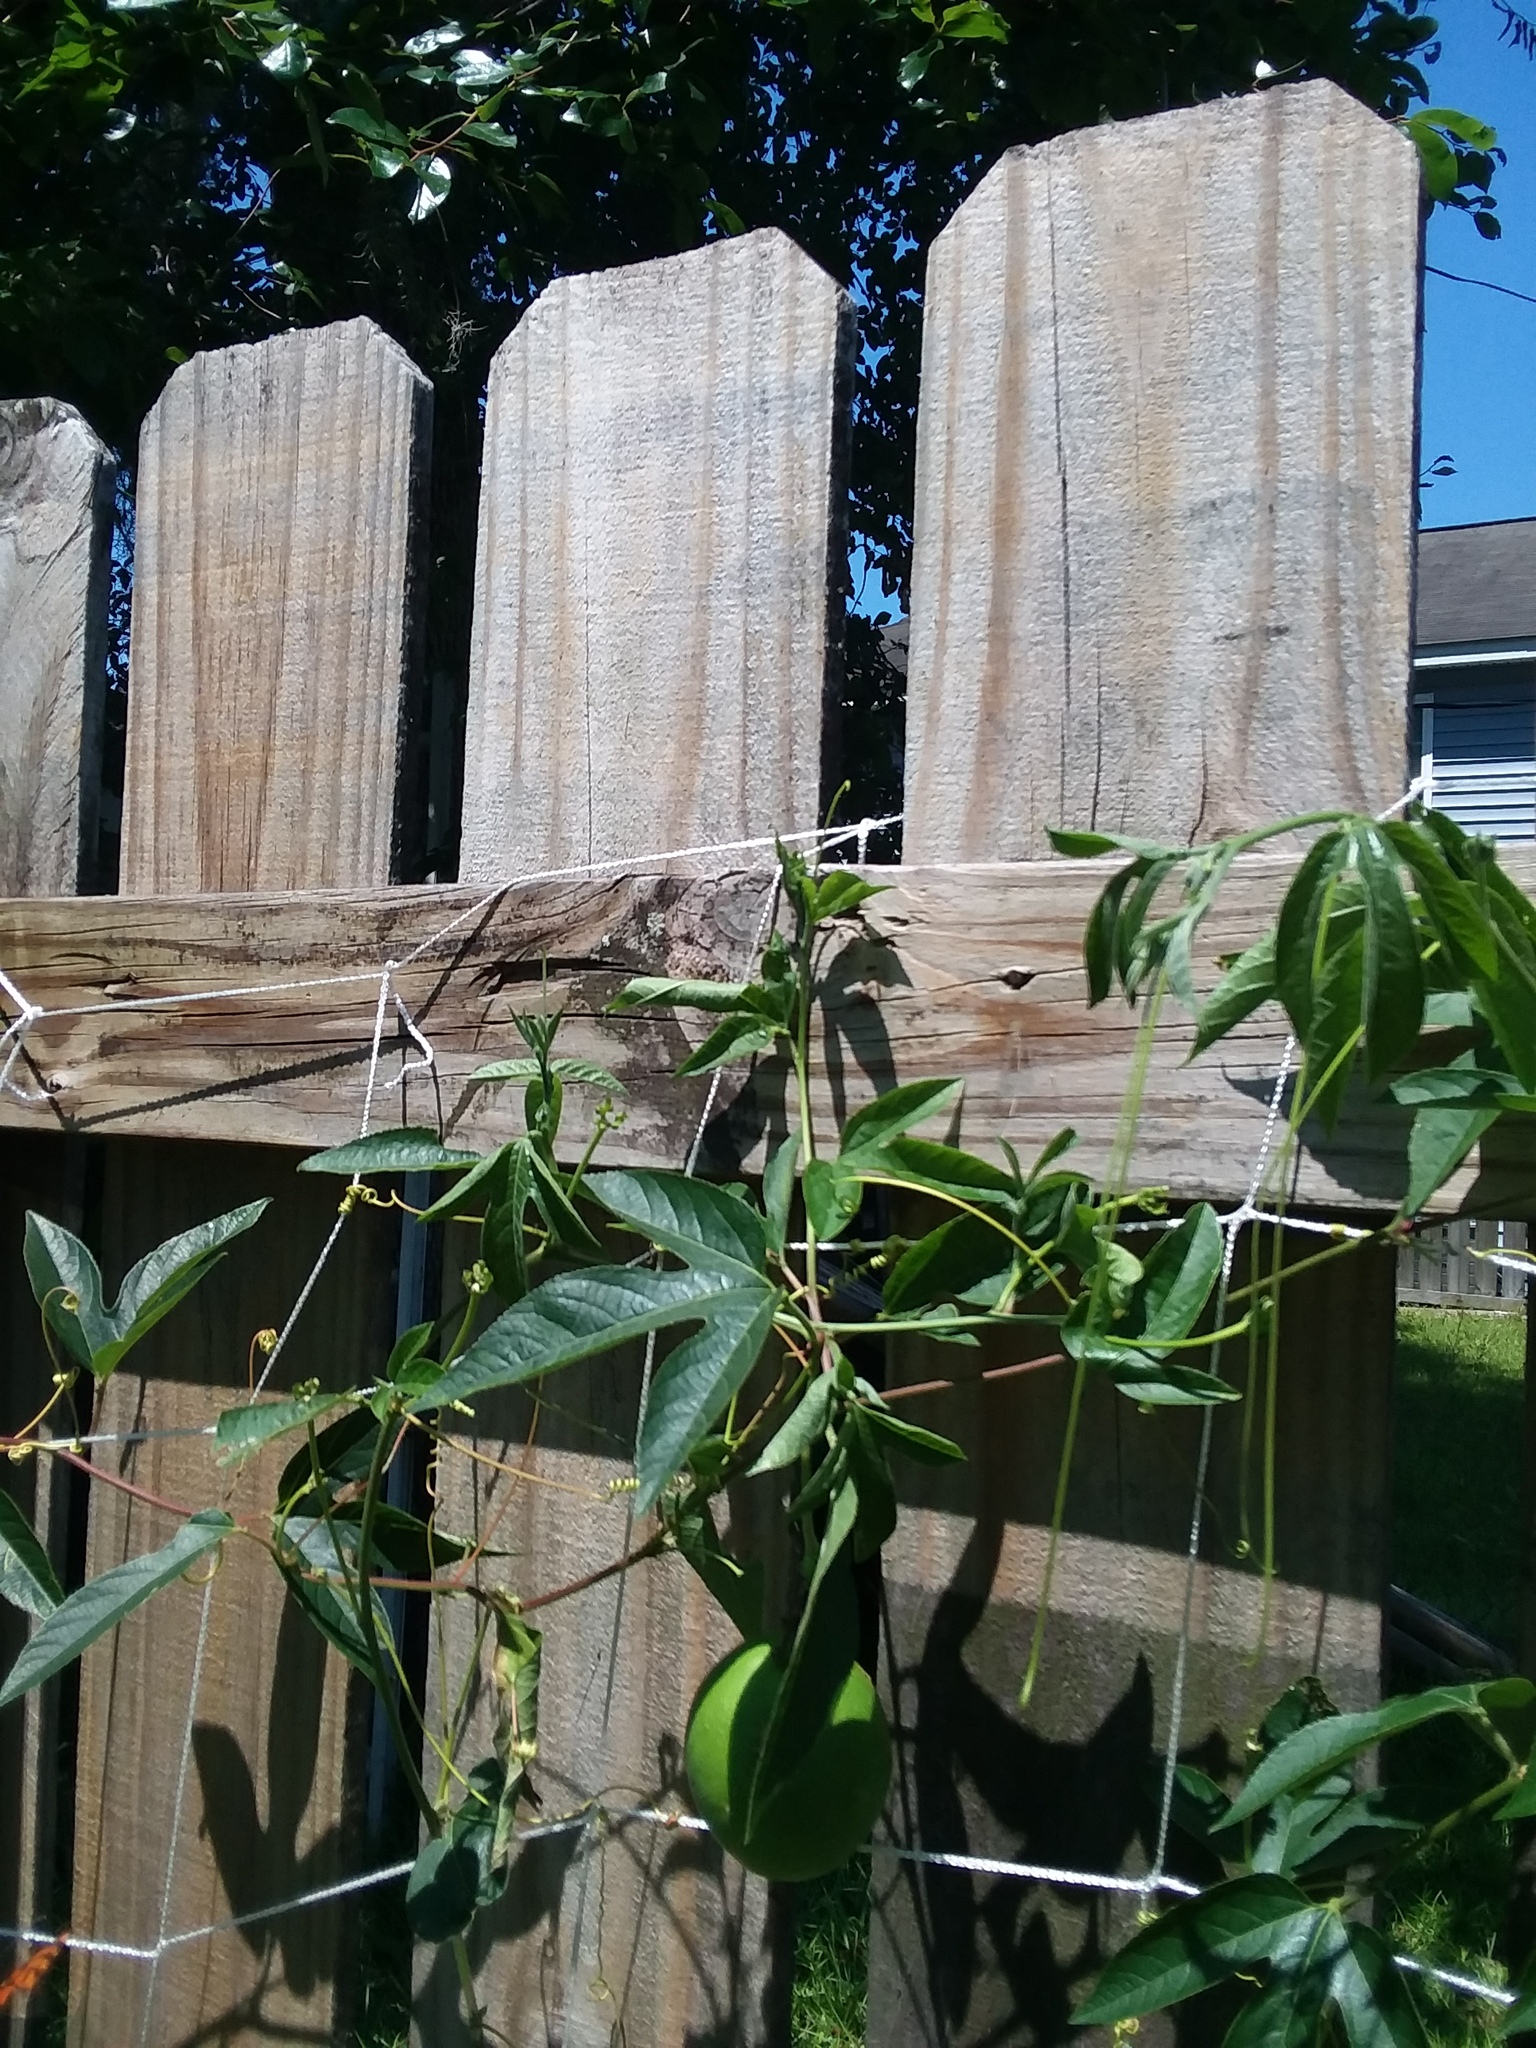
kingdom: Animalia
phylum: Arthropoda
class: Insecta
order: Lepidoptera
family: Nymphalidae
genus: Dione
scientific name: Dione vanillae
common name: Gulf fritillary
